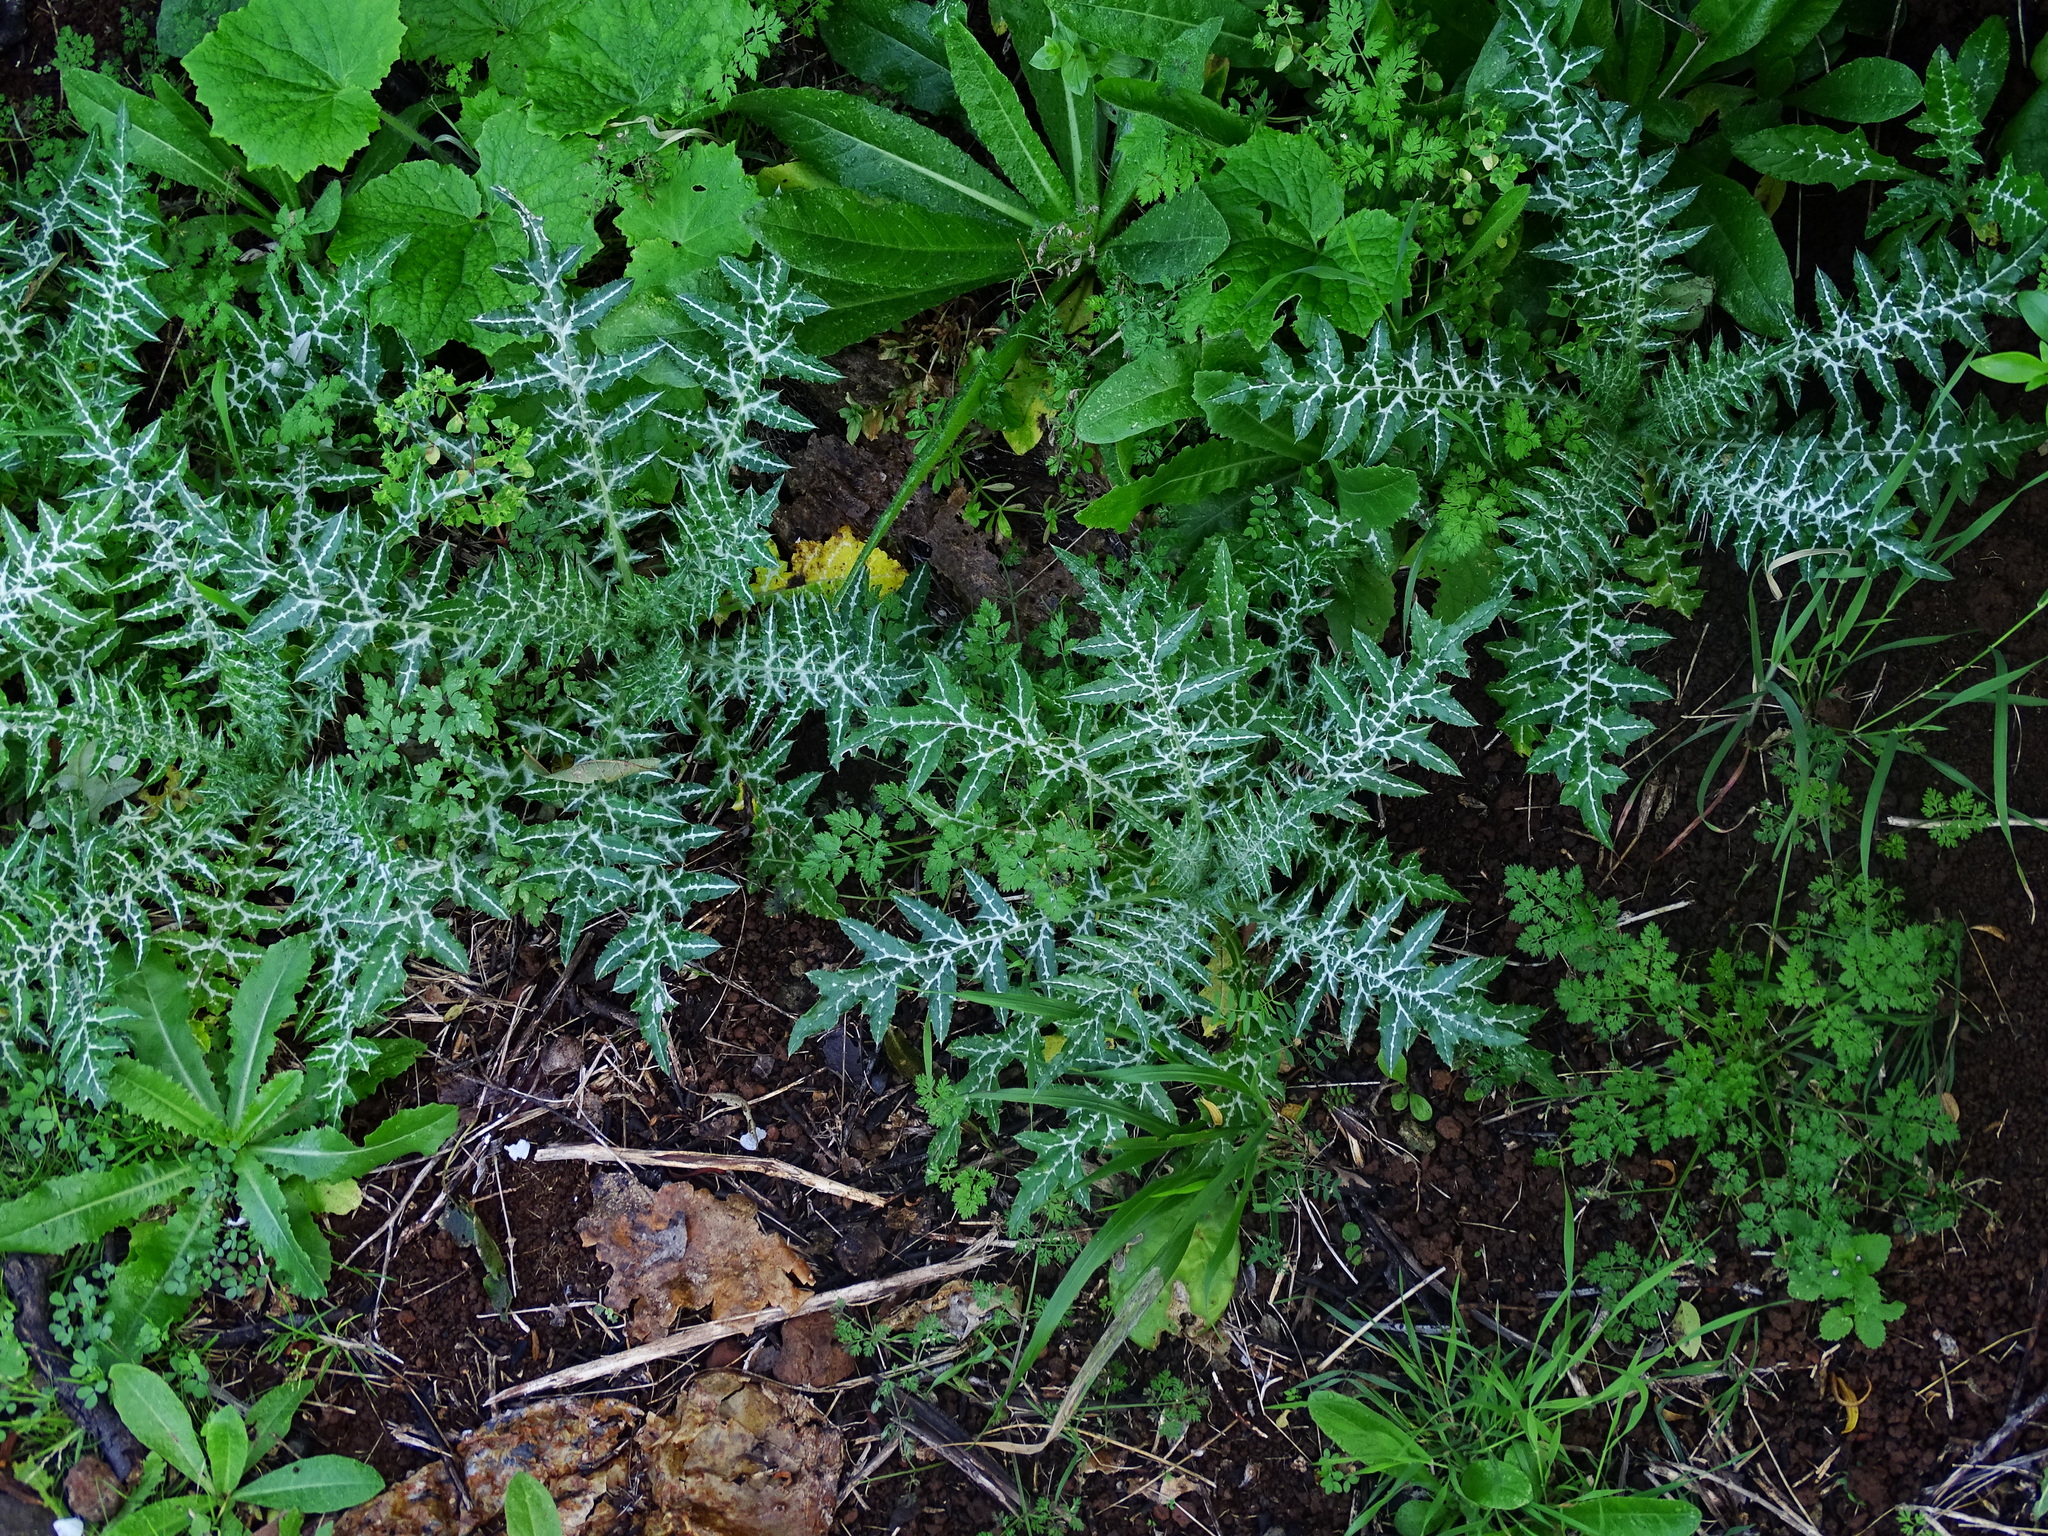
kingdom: Plantae
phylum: Tracheophyta
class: Magnoliopsida
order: Asterales
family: Asteraceae
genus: Galactites
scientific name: Galactites tomentosa
